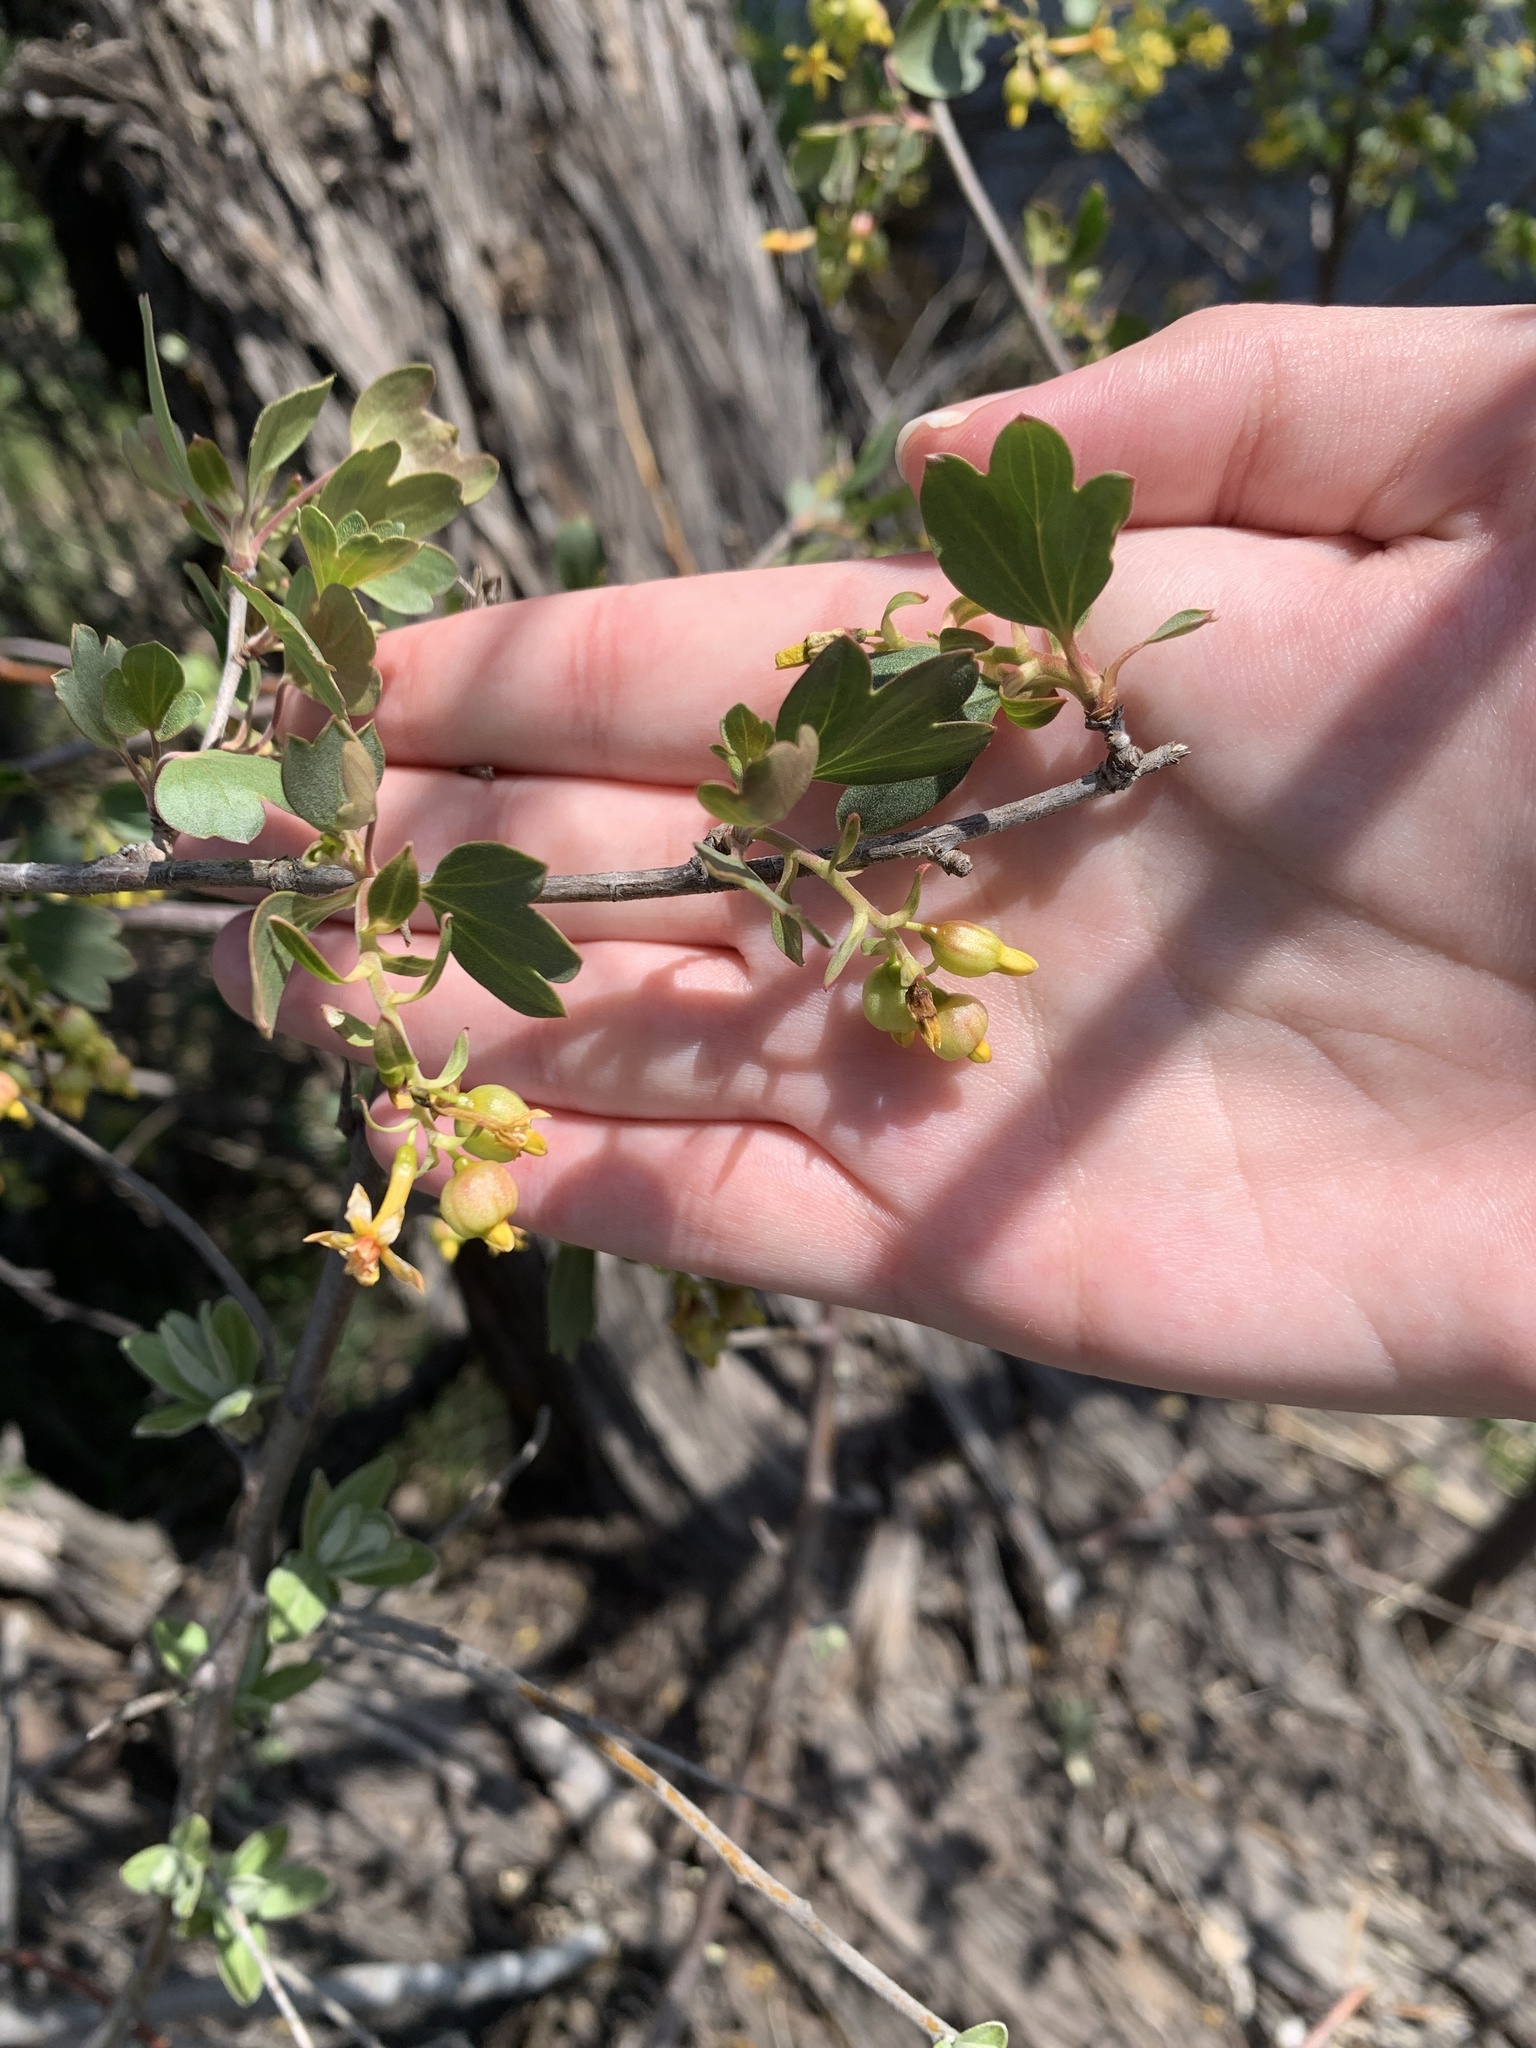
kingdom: Plantae
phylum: Tracheophyta
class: Magnoliopsida
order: Saxifragales
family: Grossulariaceae
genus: Ribes
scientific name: Ribes aureum
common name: Golden currant
